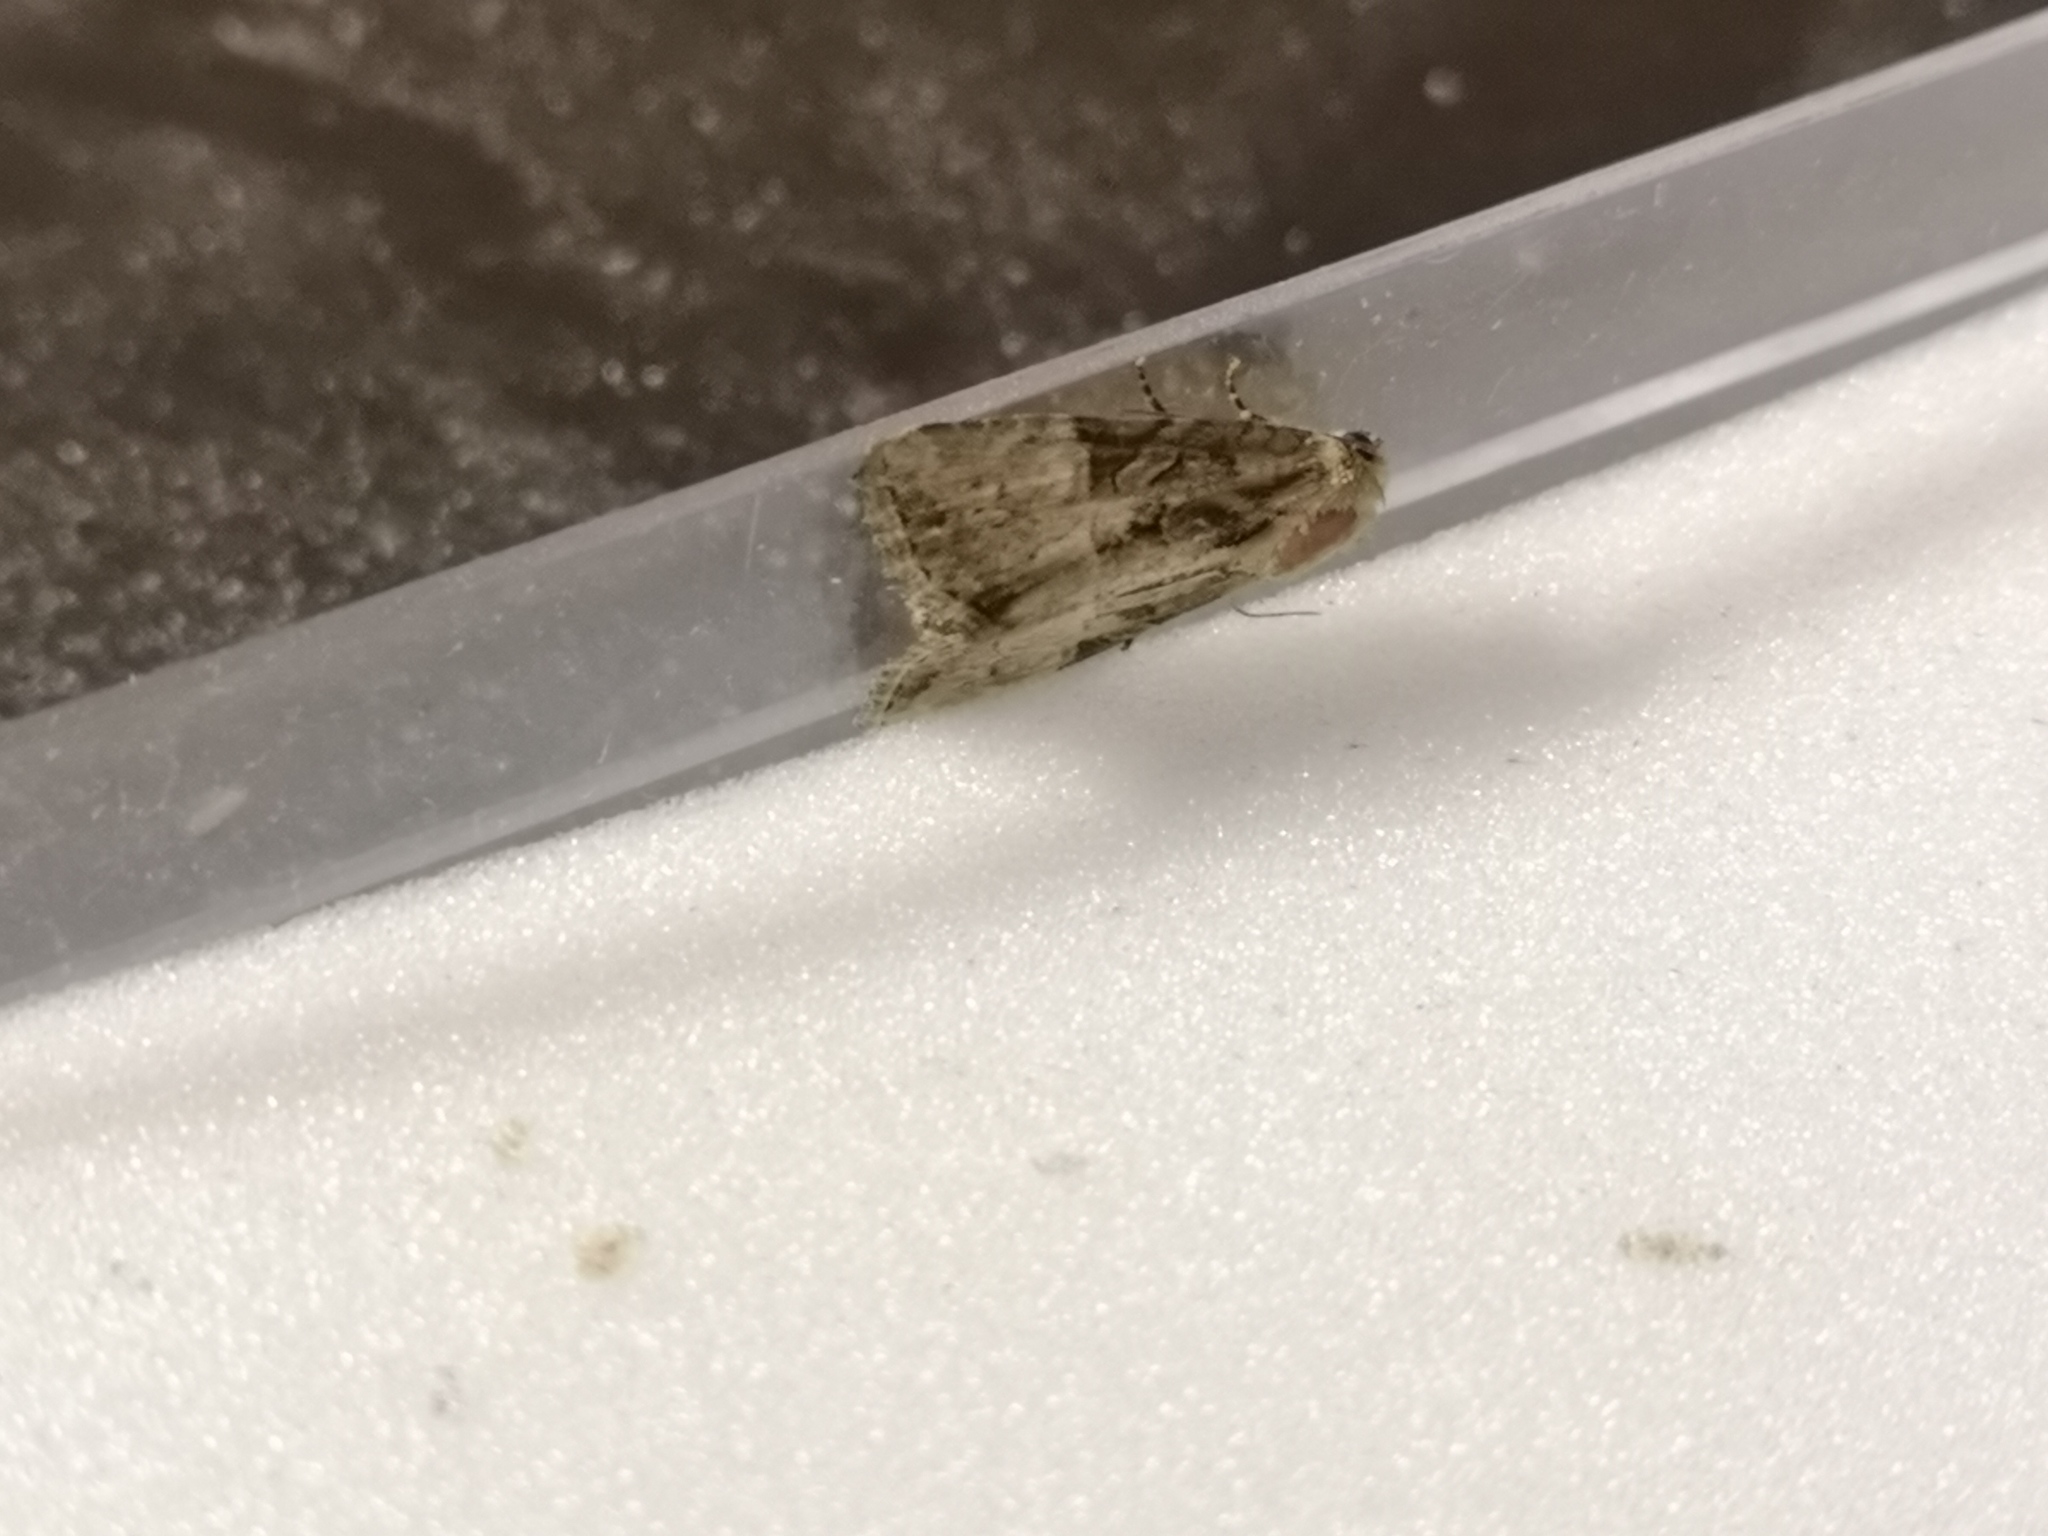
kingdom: Animalia
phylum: Arthropoda
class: Insecta
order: Lepidoptera
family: Noctuidae
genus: Mesoligia
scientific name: Mesoligia furuncula
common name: Cloaked minor
